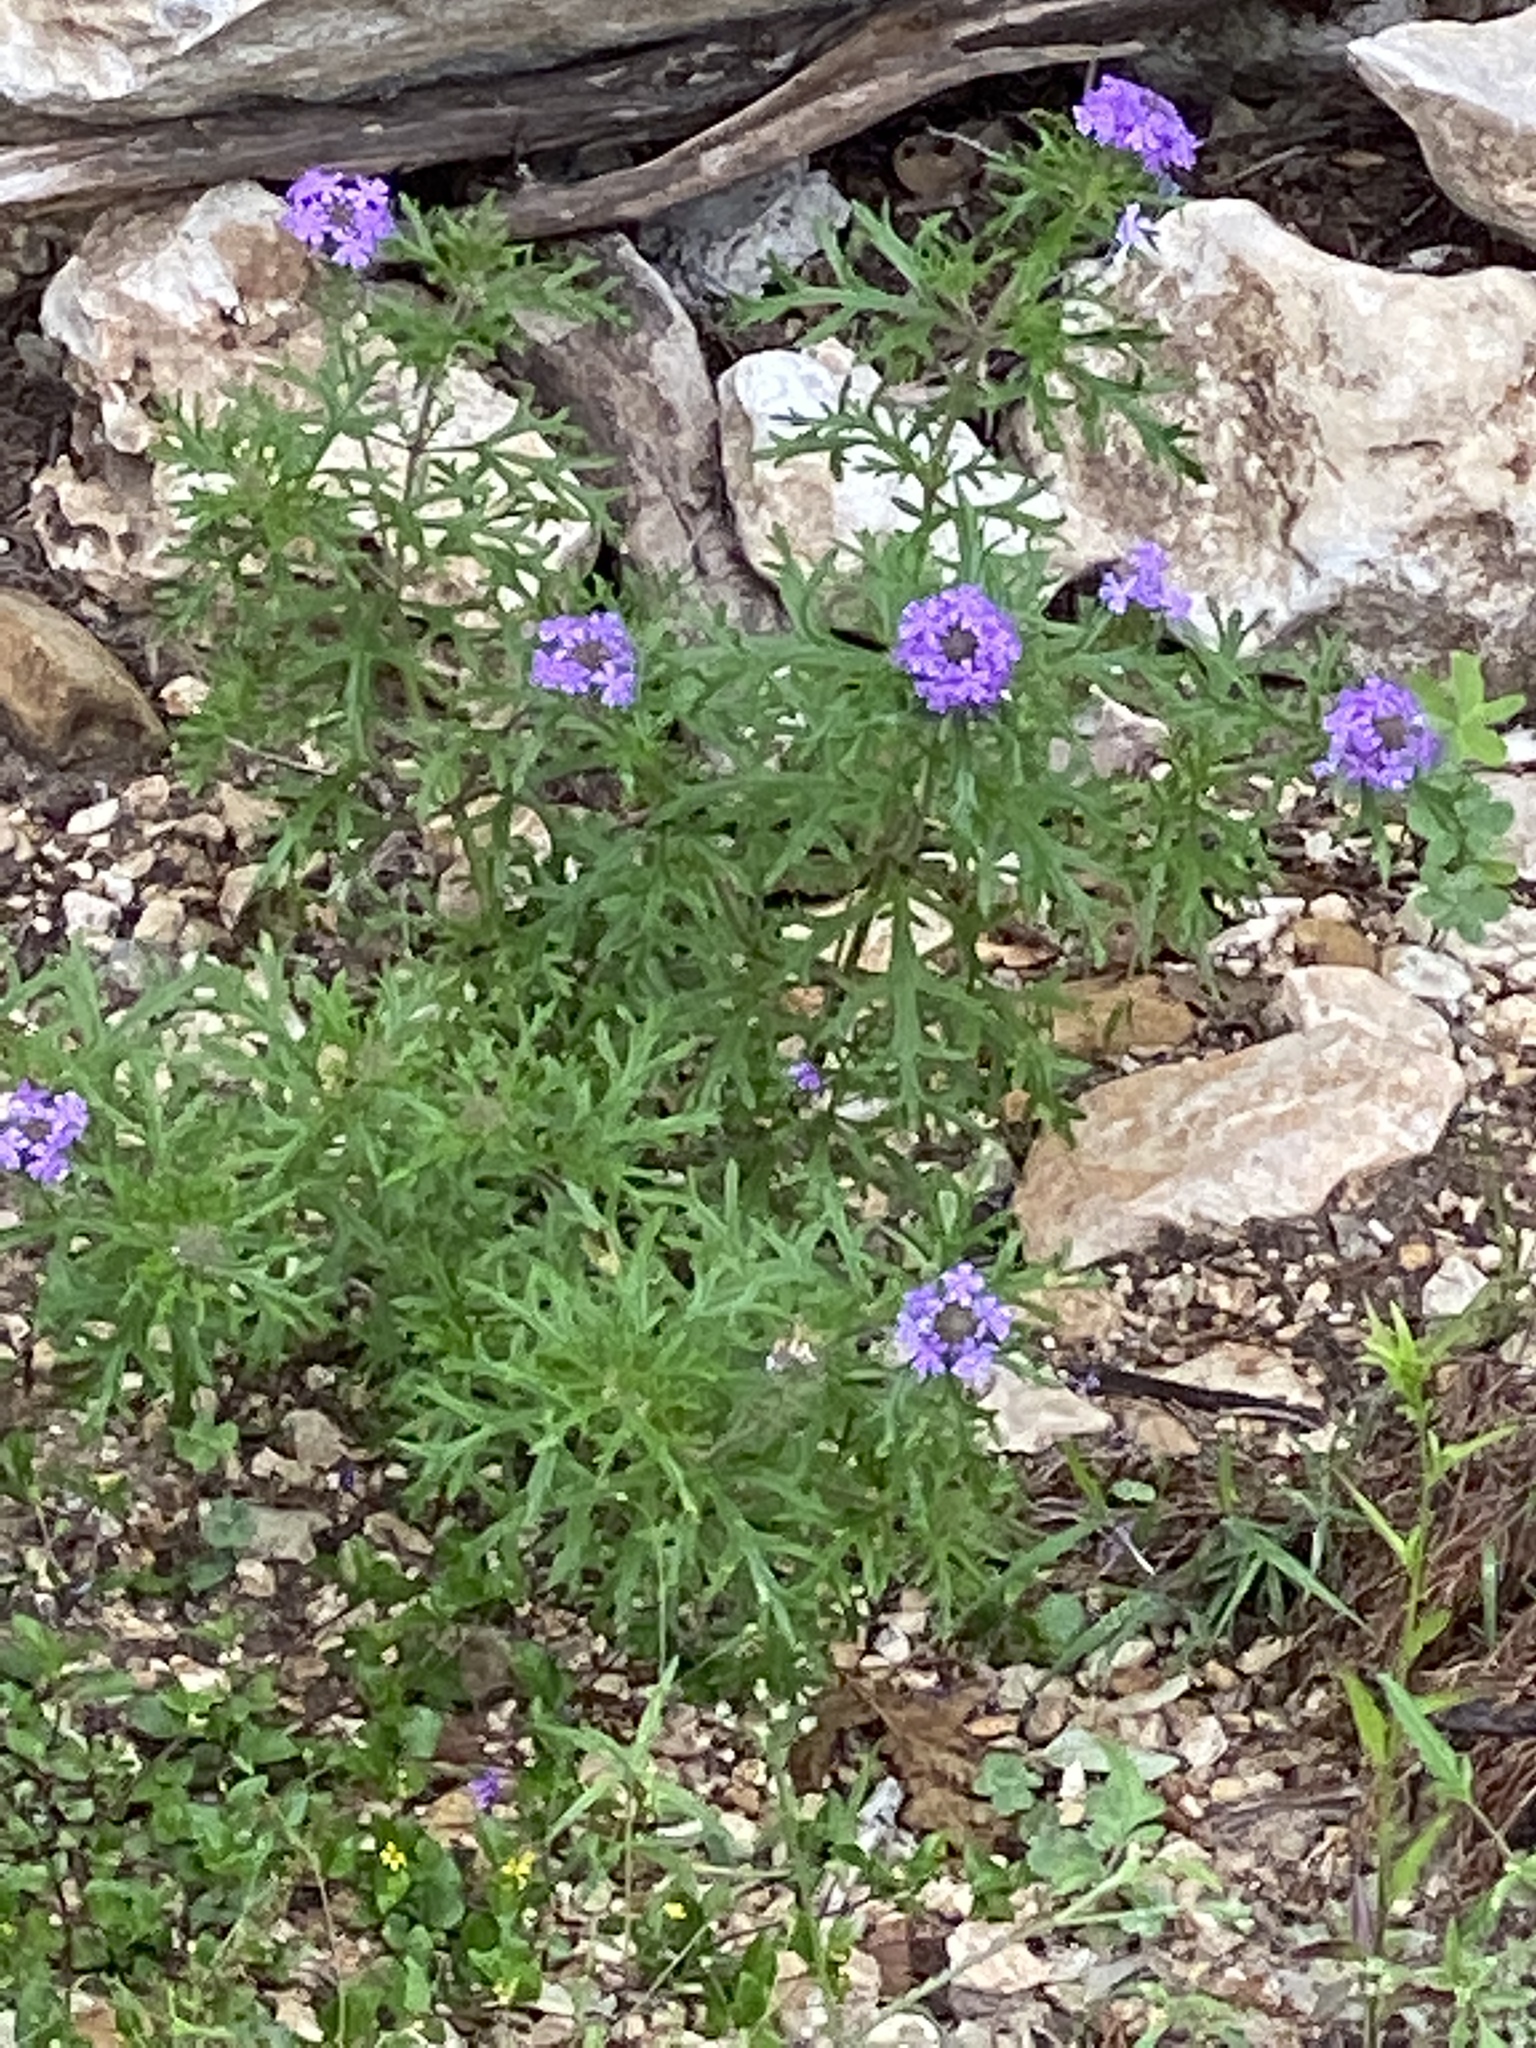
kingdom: Plantae
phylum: Tracheophyta
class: Magnoliopsida
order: Lamiales
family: Verbenaceae
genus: Verbena
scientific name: Verbena bipinnatifida
